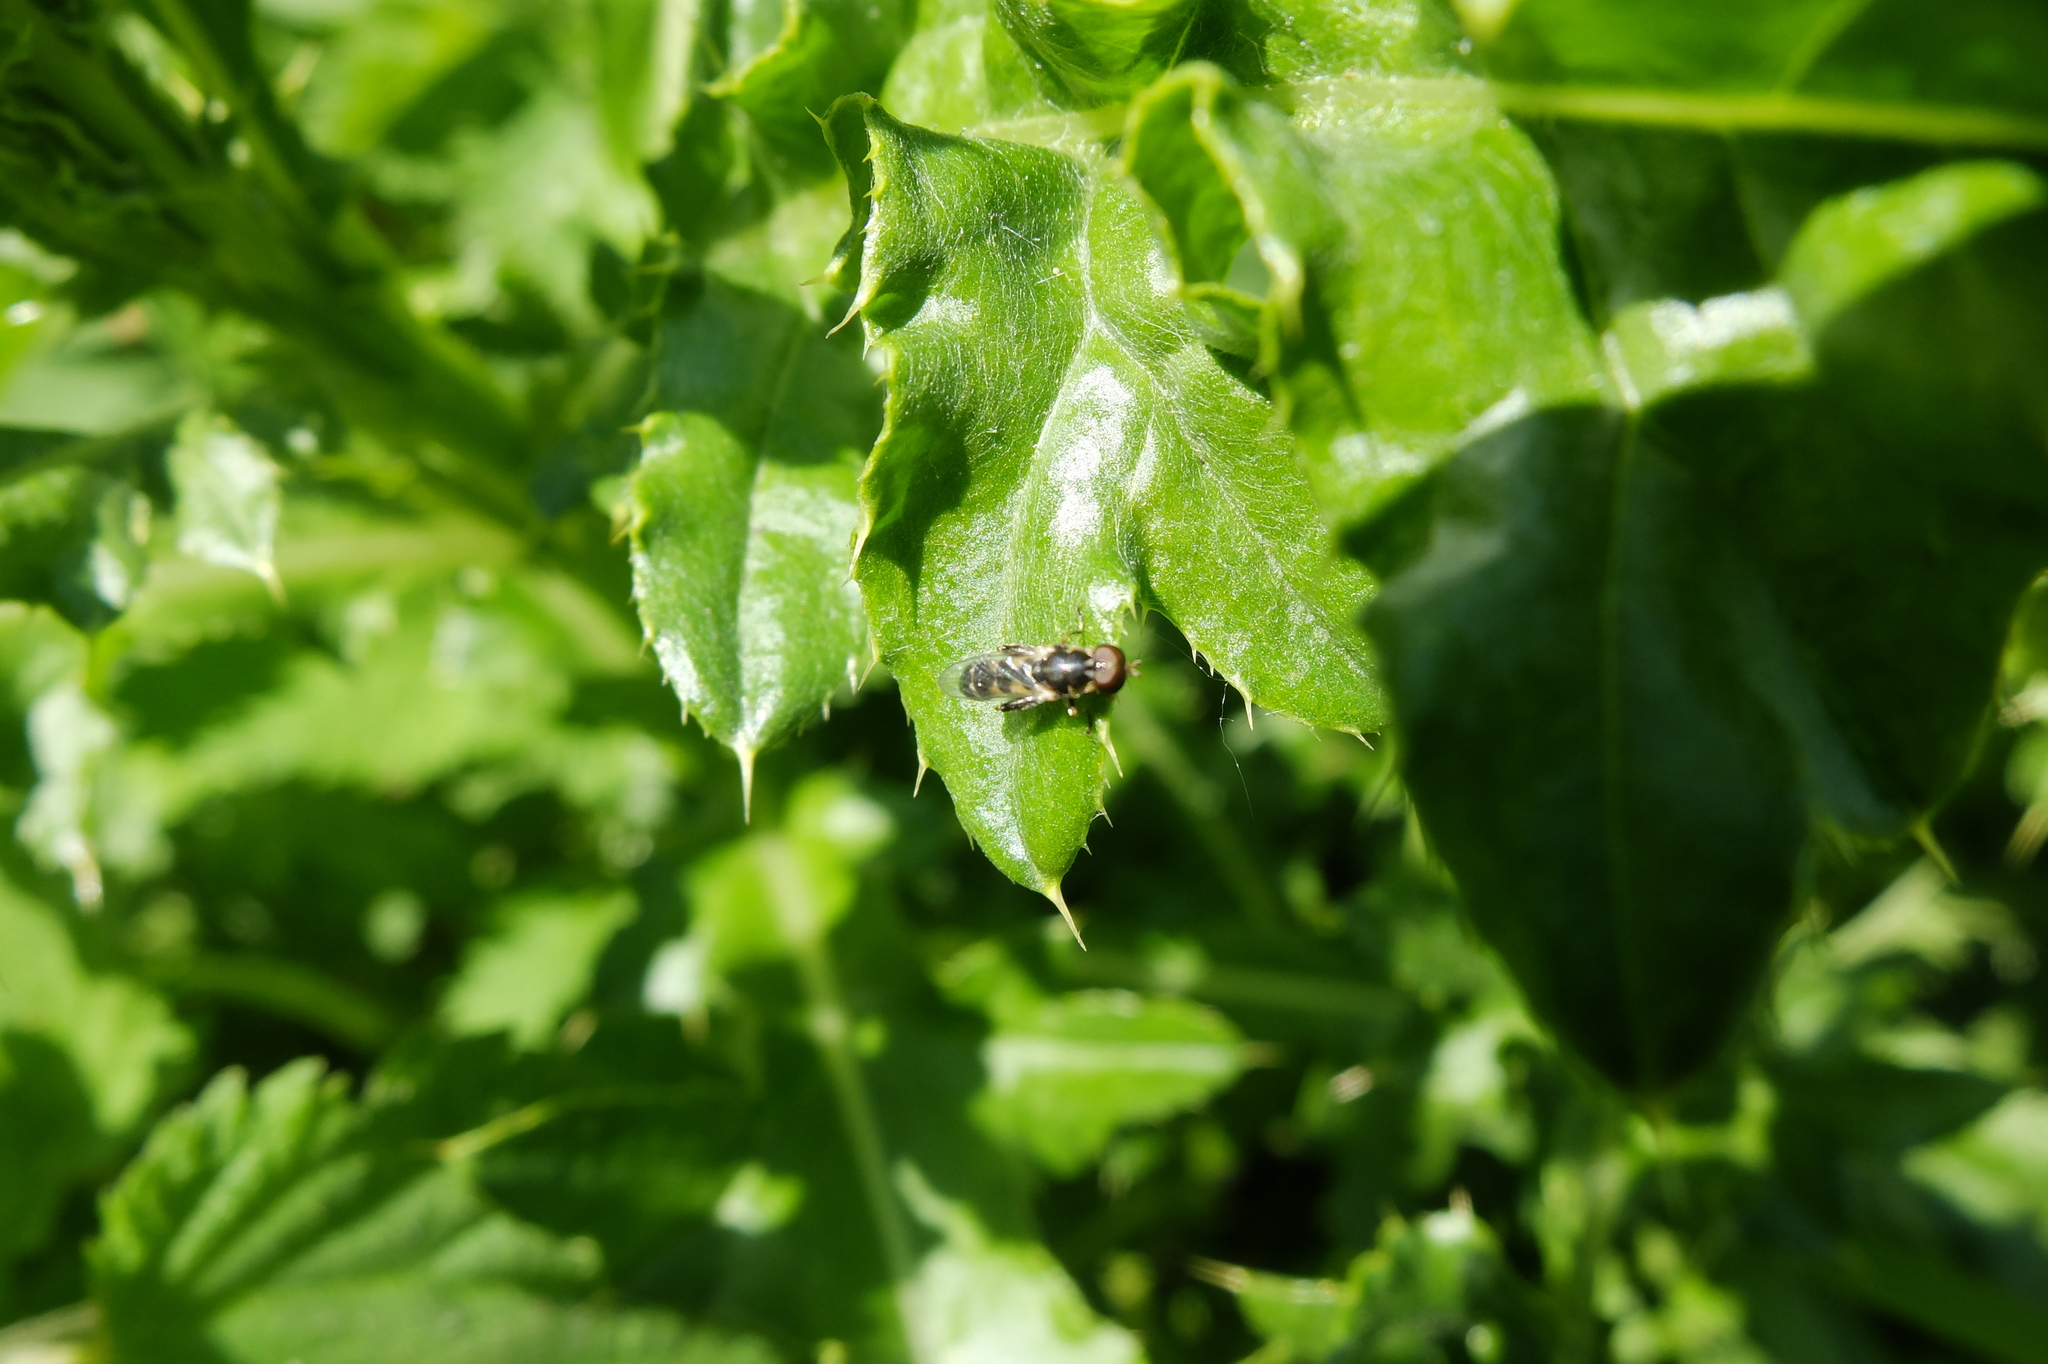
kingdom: Animalia
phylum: Arthropoda
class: Insecta
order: Diptera
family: Syrphidae
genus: Syritta
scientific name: Syritta pipiens
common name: Hover fly
